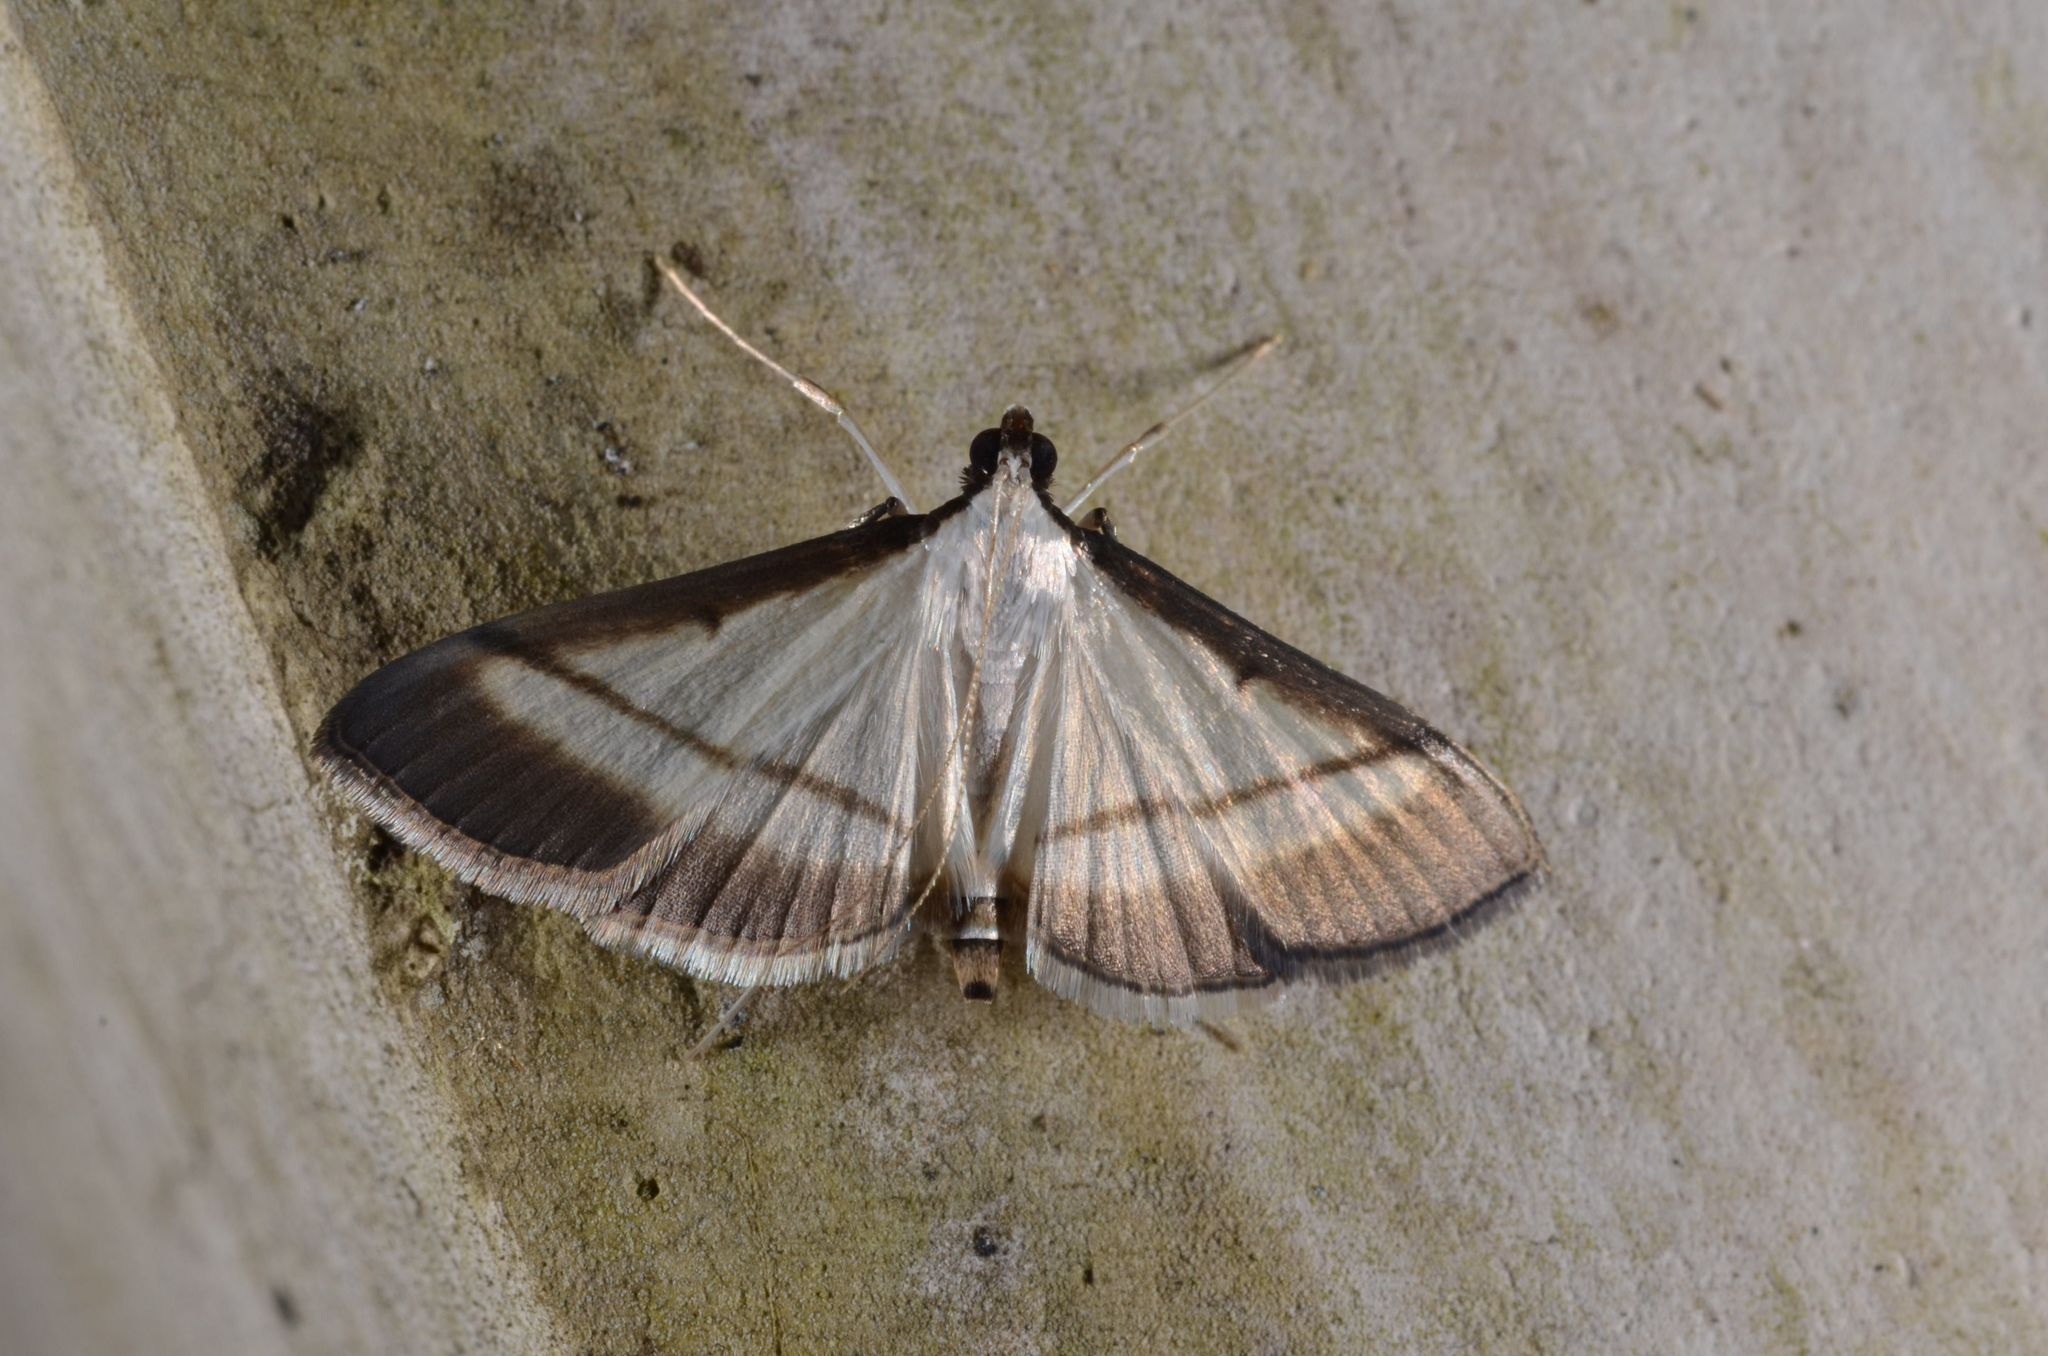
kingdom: Animalia
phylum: Arthropoda
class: Insecta
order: Lepidoptera
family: Crambidae
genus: Bradina
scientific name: Bradina diagonalis
